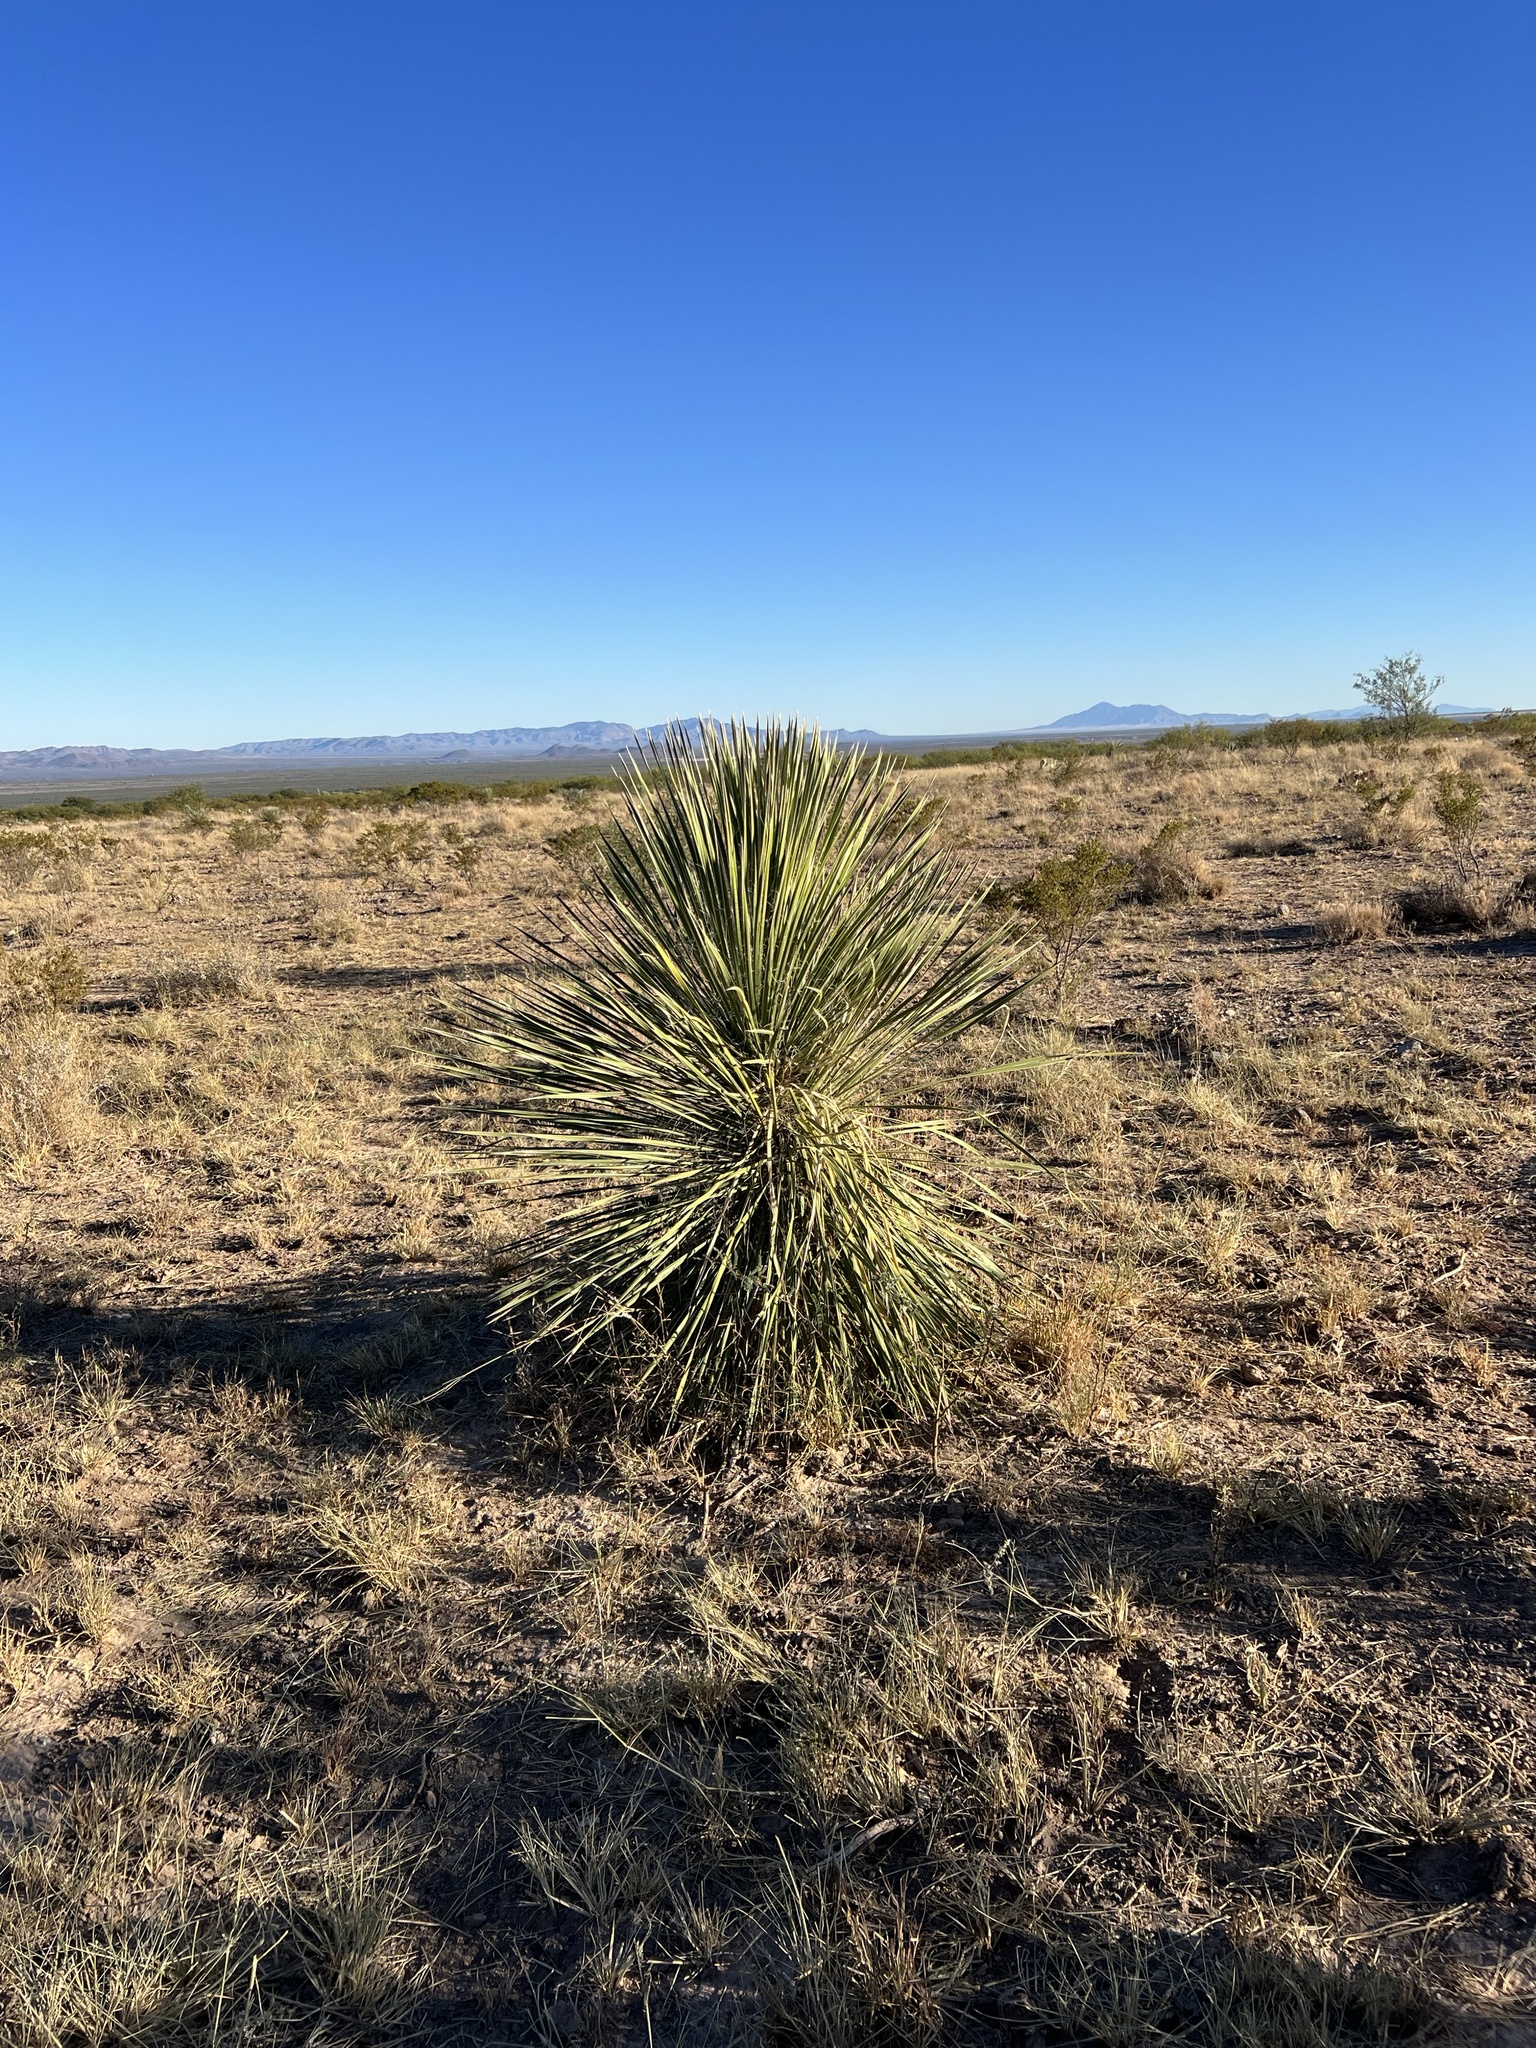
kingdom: Plantae
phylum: Tracheophyta
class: Liliopsida
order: Asparagales
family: Asparagaceae
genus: Yucca
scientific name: Yucca elata
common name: Palmella
